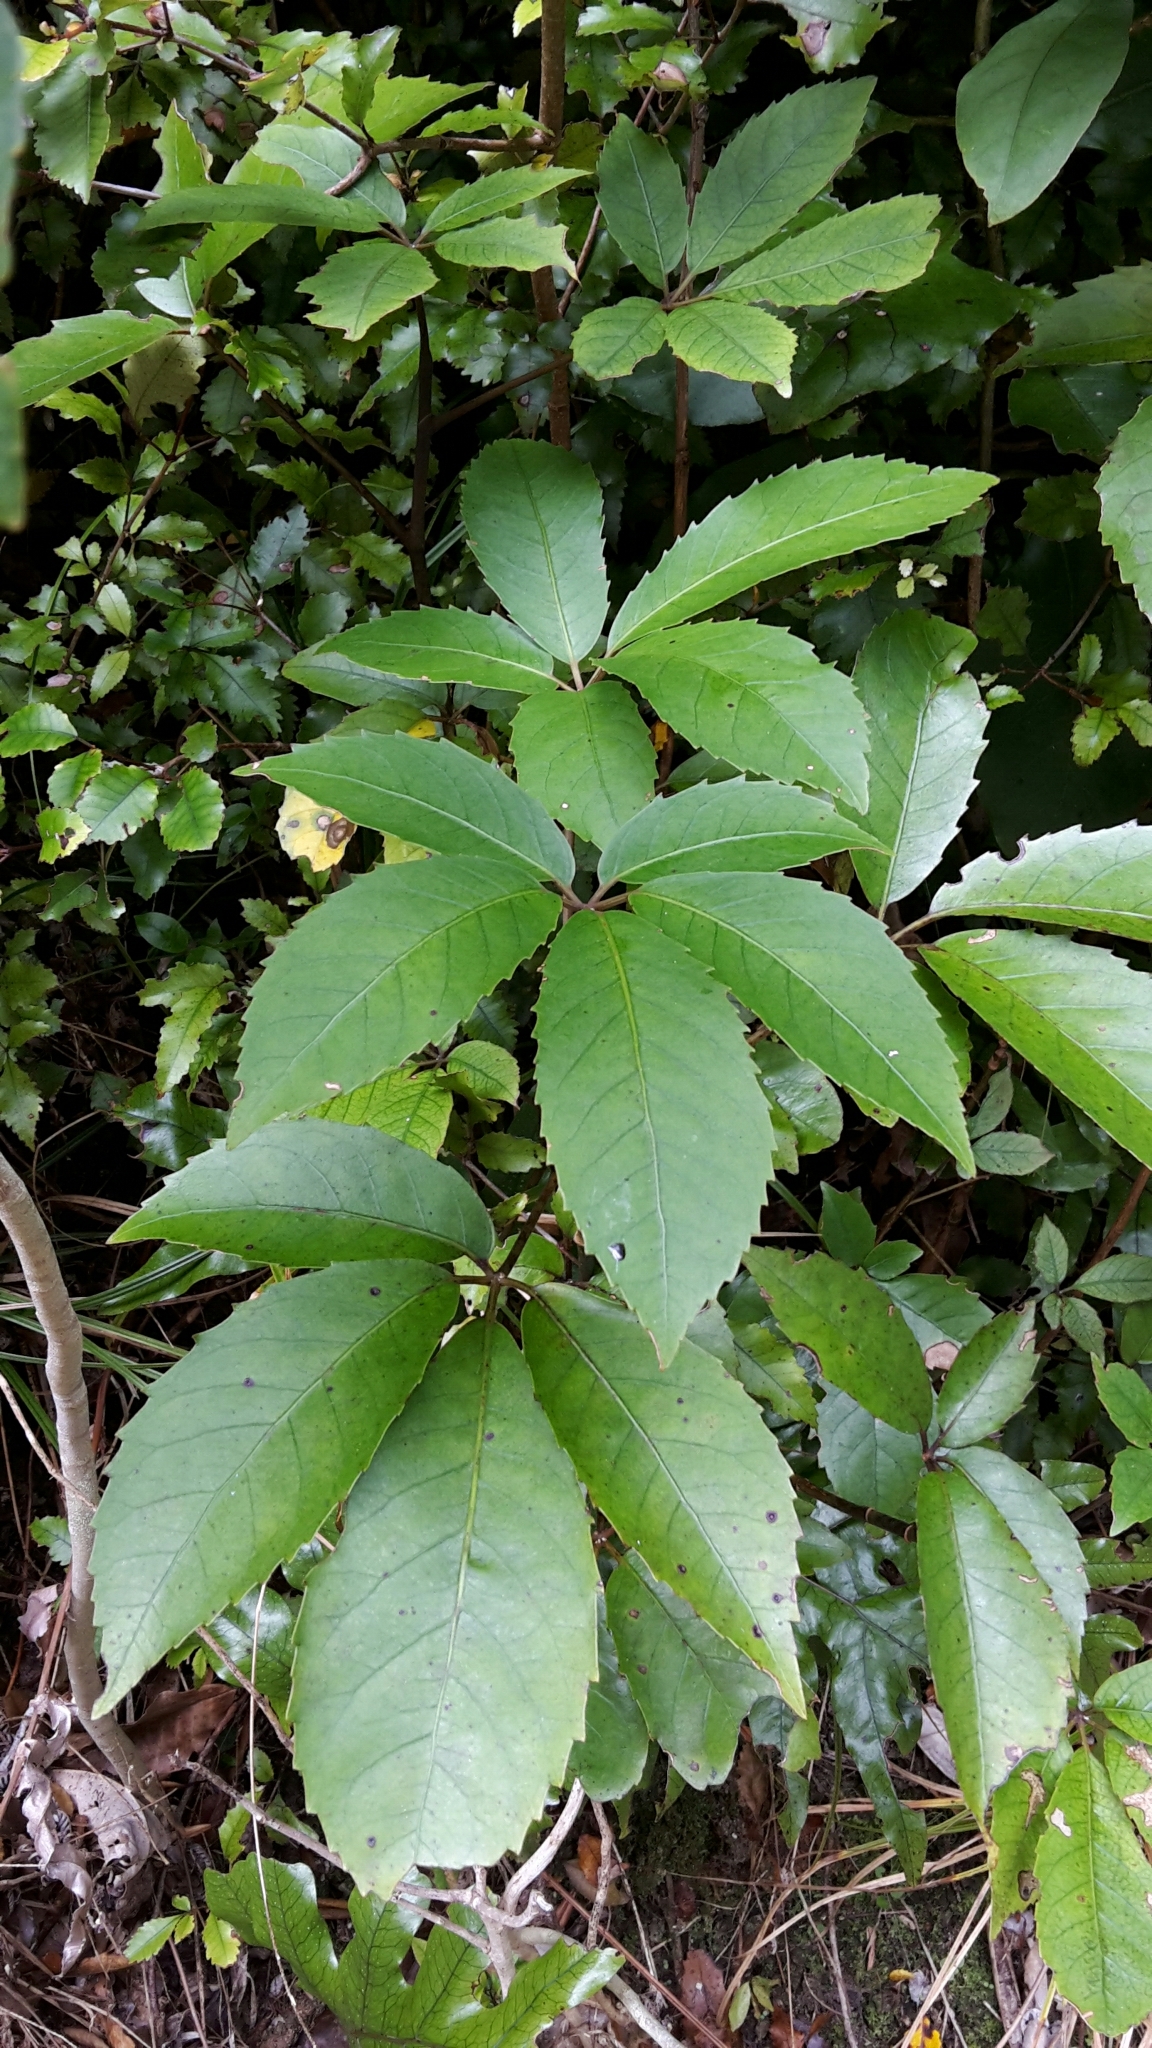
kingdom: Plantae
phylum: Tracheophyta
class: Magnoliopsida
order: Apiales
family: Araliaceae
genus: Neopanax
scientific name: Neopanax arboreus
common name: Five-fingers
